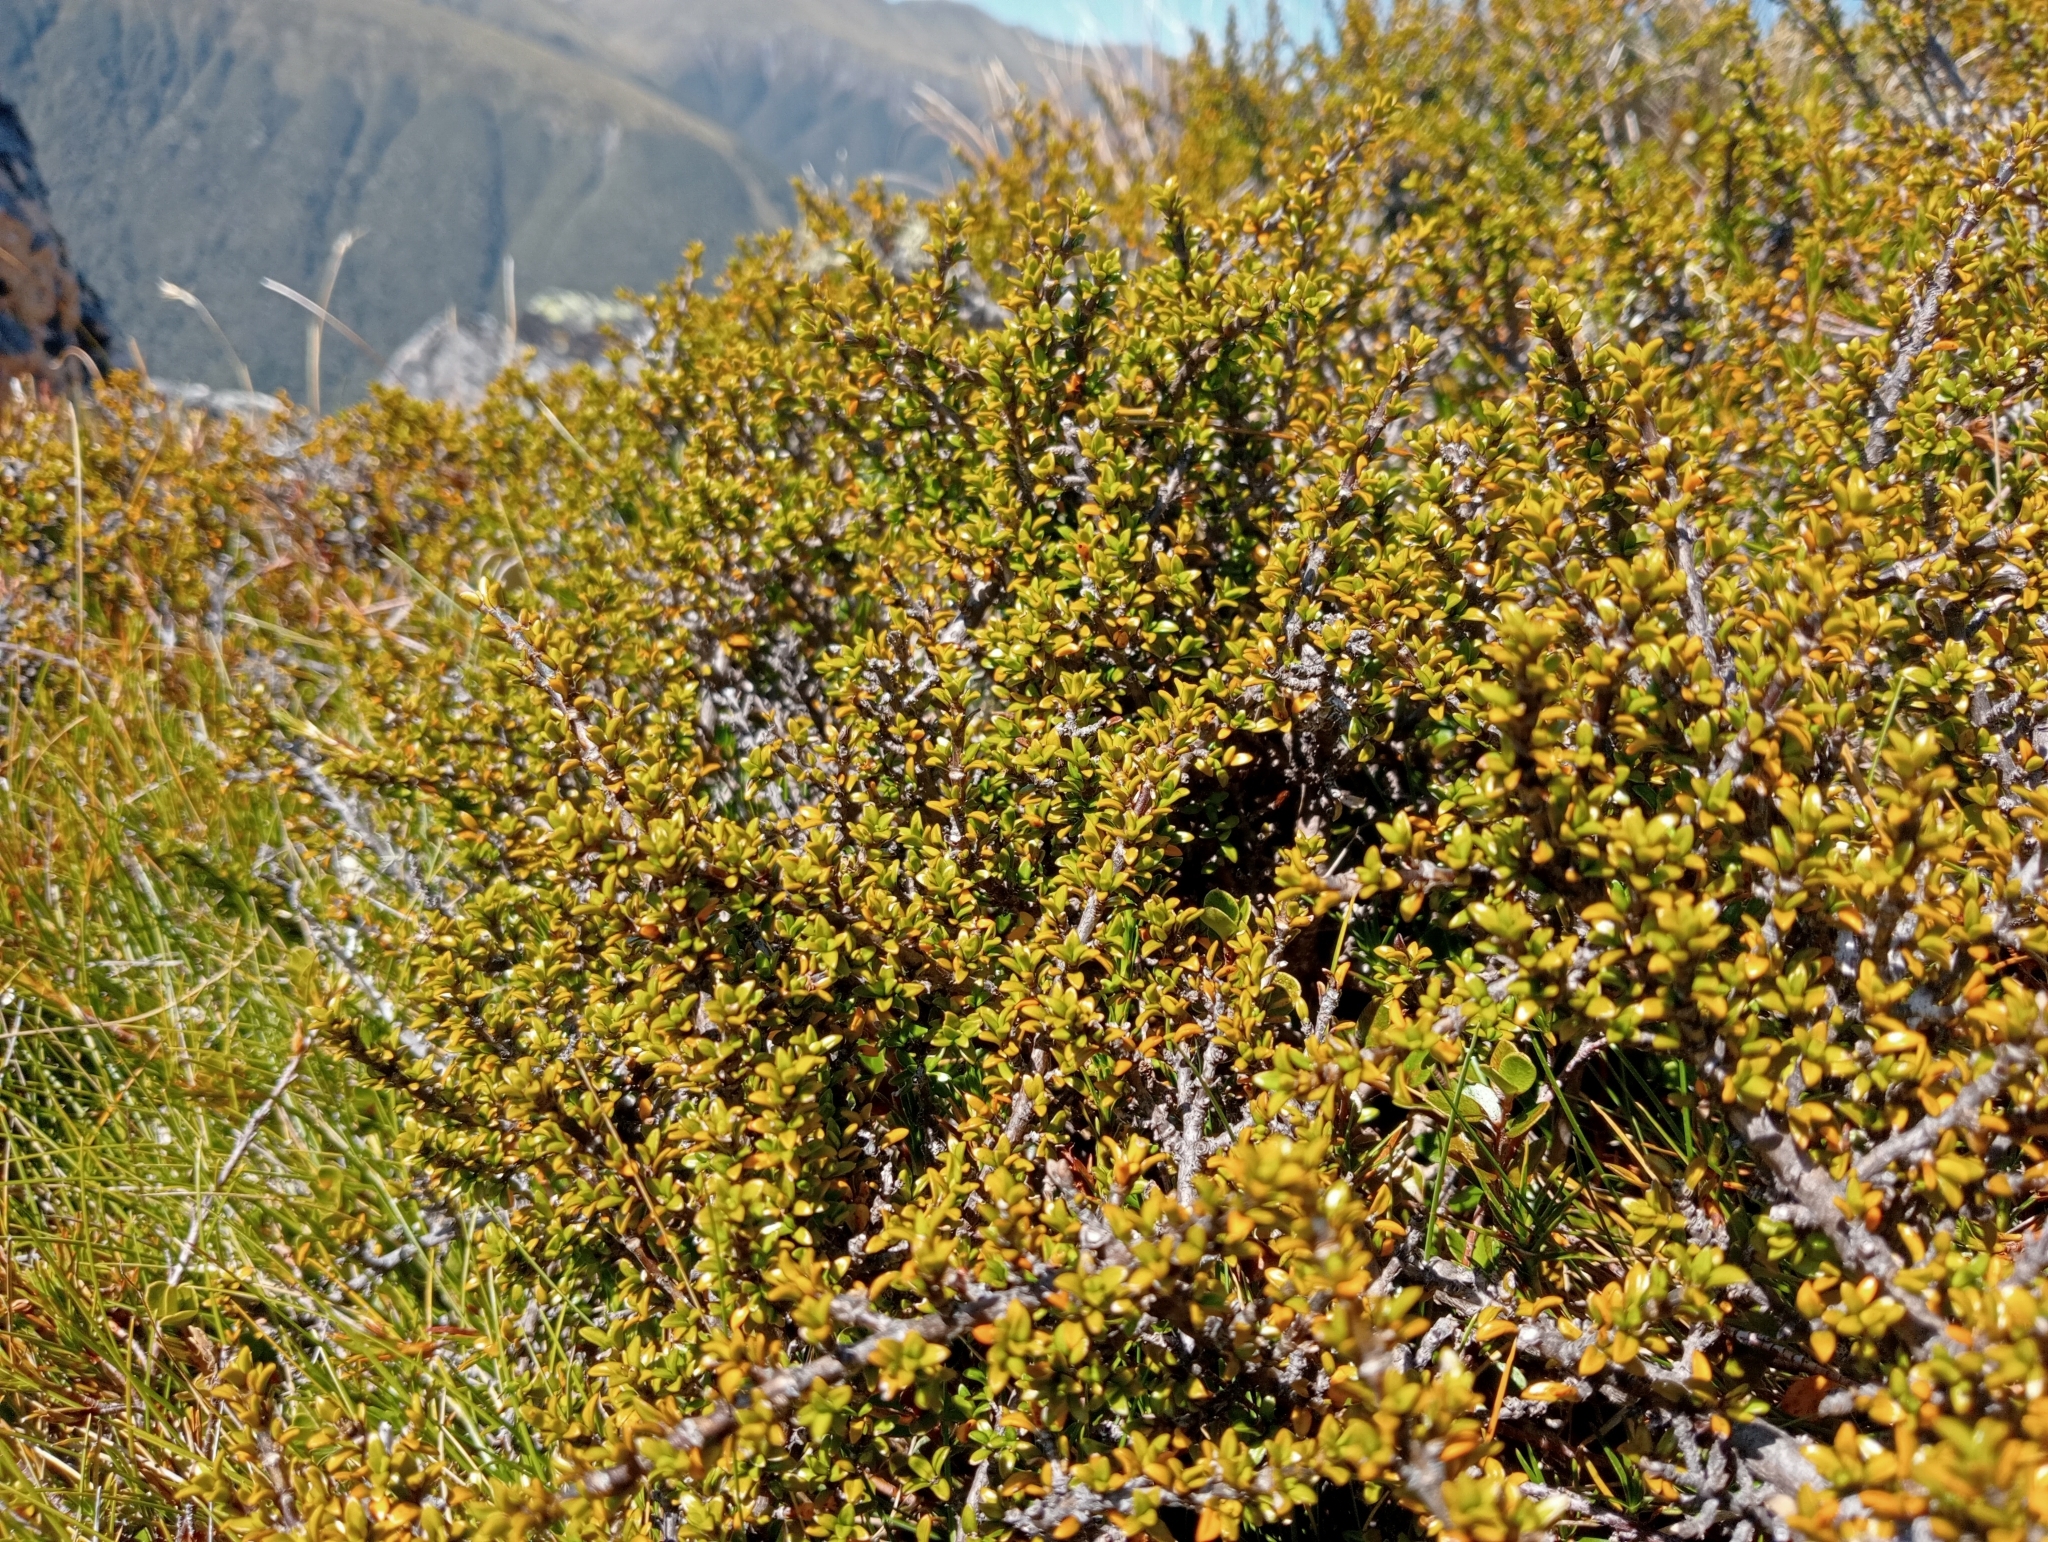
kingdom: Plantae
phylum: Tracheophyta
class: Magnoliopsida
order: Gentianales
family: Rubiaceae
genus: Coprosma
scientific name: Coprosma fowerakeri
